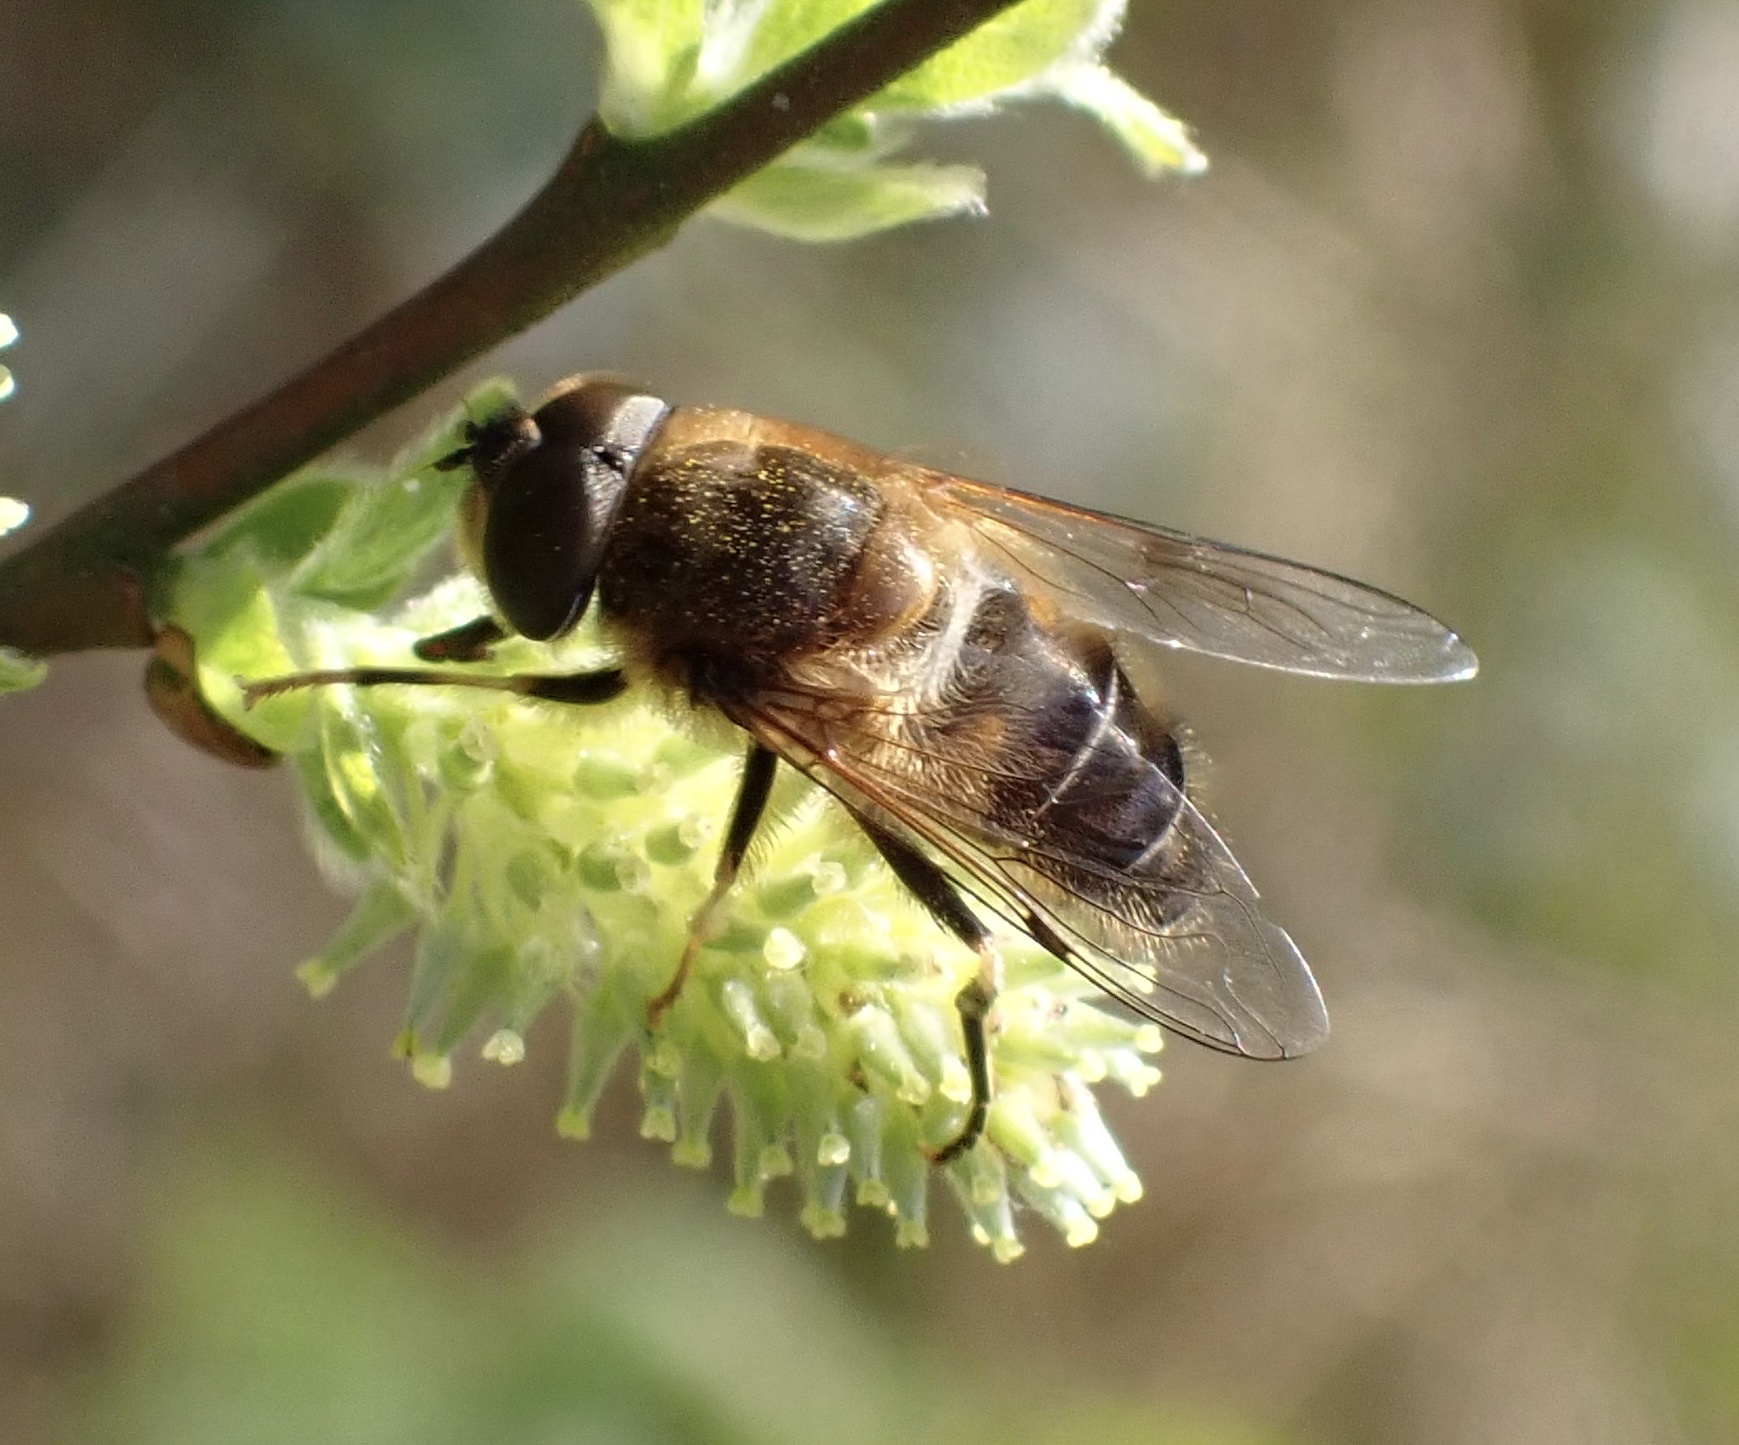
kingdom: Animalia
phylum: Arthropoda
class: Insecta
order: Diptera
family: Syrphidae
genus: Eristalis
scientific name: Eristalis pertinax
